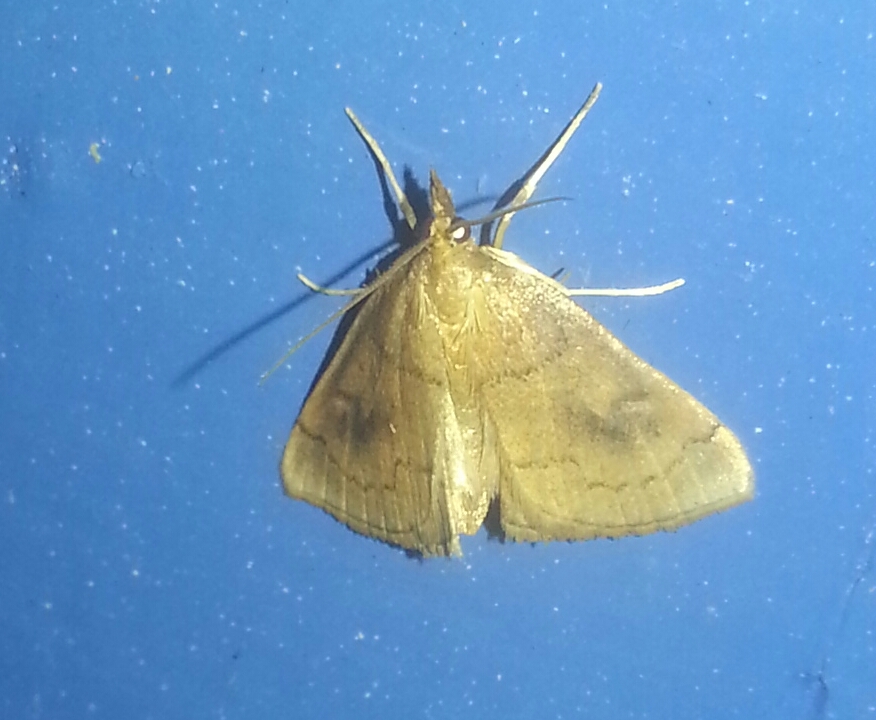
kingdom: Animalia
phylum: Arthropoda
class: Insecta
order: Lepidoptera
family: Crambidae
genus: Fumibotys
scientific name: Fumibotys fumalis
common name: Mint root borer moth
